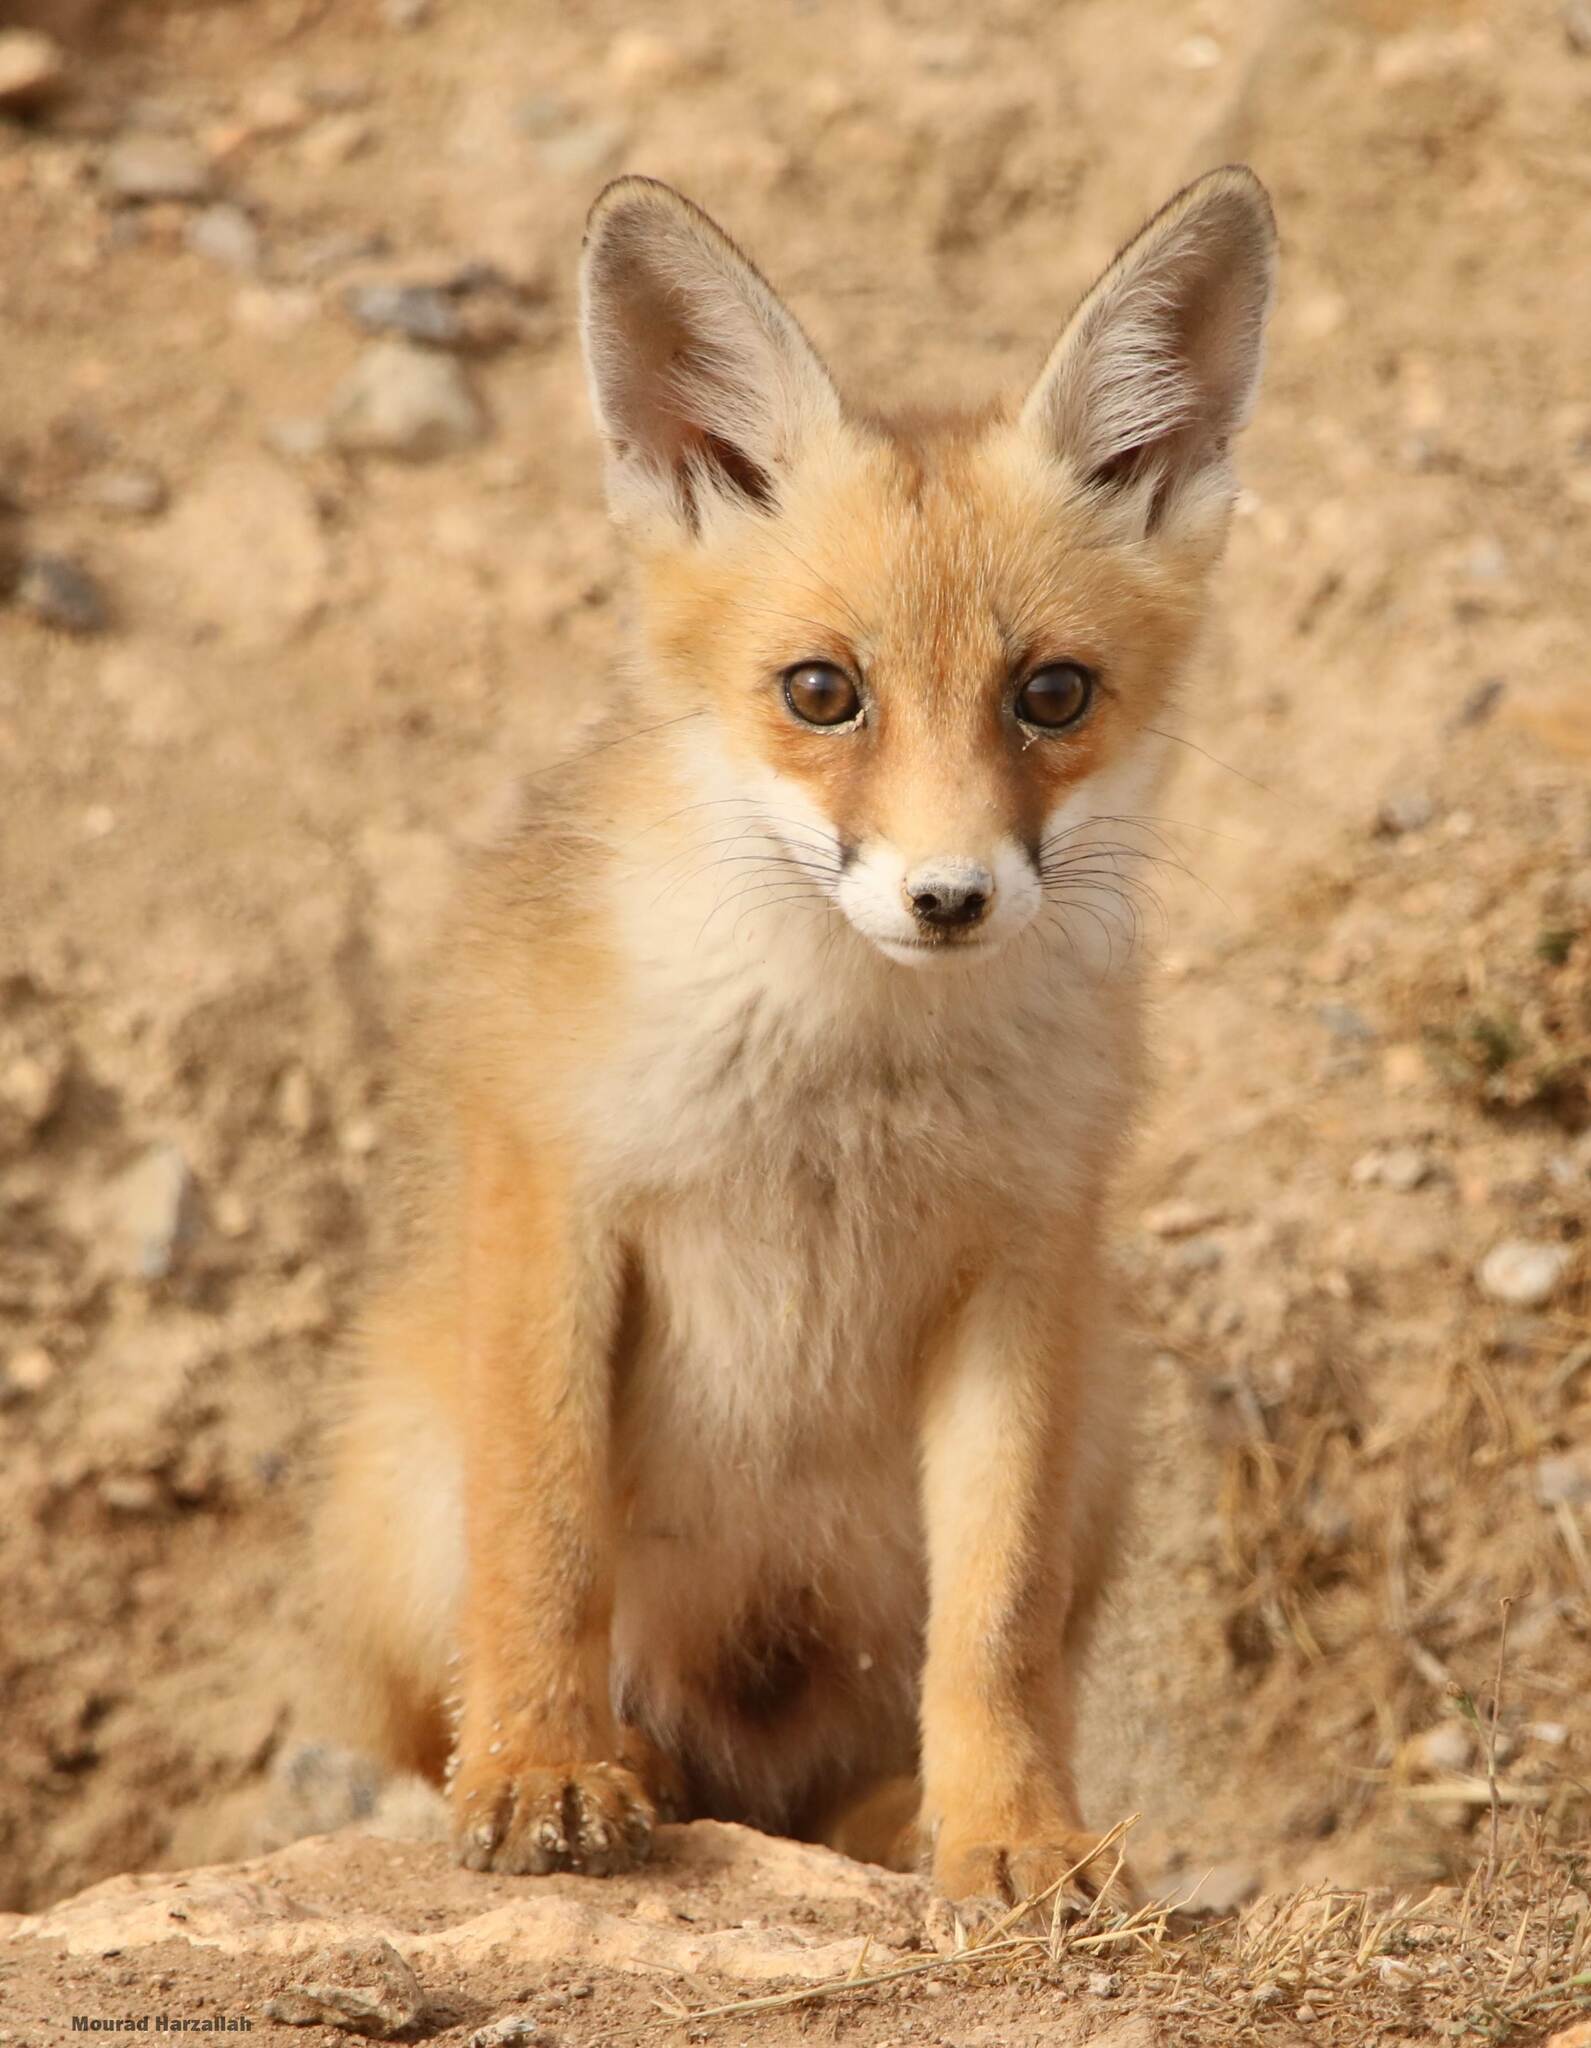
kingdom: Animalia
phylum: Chordata
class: Mammalia
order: Carnivora
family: Canidae
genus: Vulpes
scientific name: Vulpes vulpes
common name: Red fox
